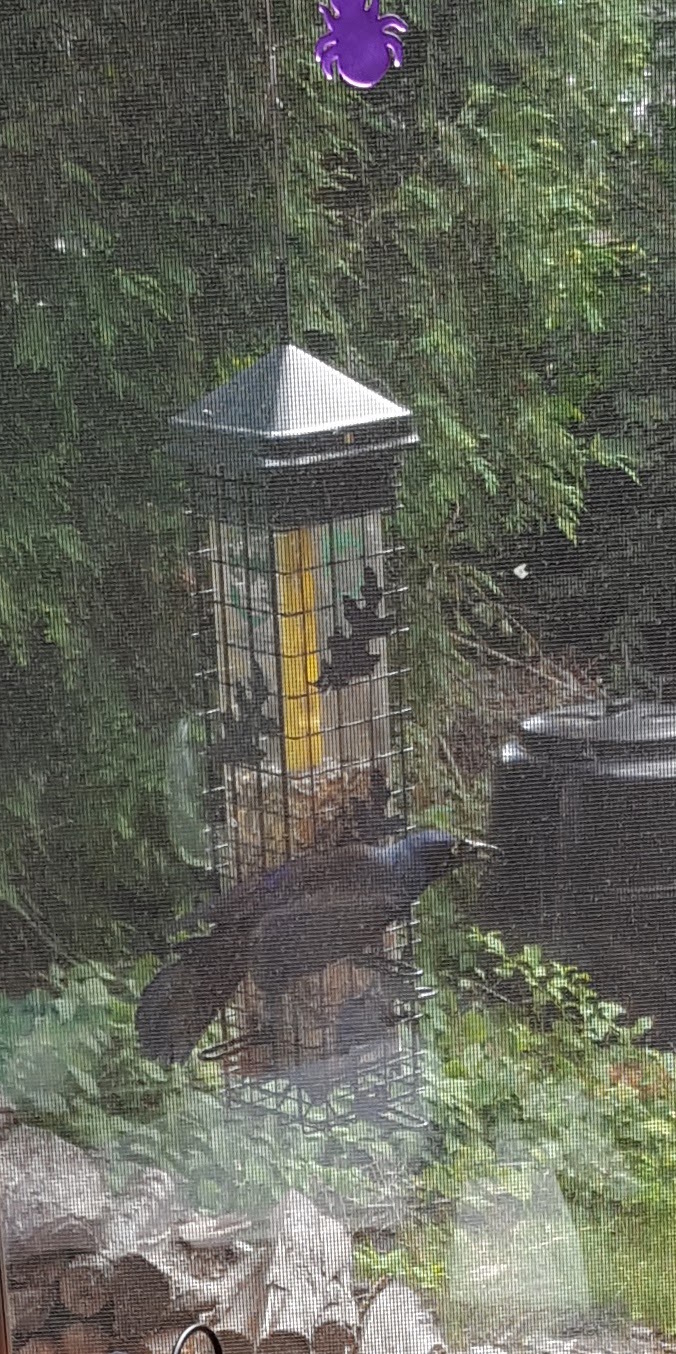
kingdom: Animalia
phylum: Chordata
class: Aves
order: Passeriformes
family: Icteridae
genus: Quiscalus
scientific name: Quiscalus quiscula
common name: Common grackle
